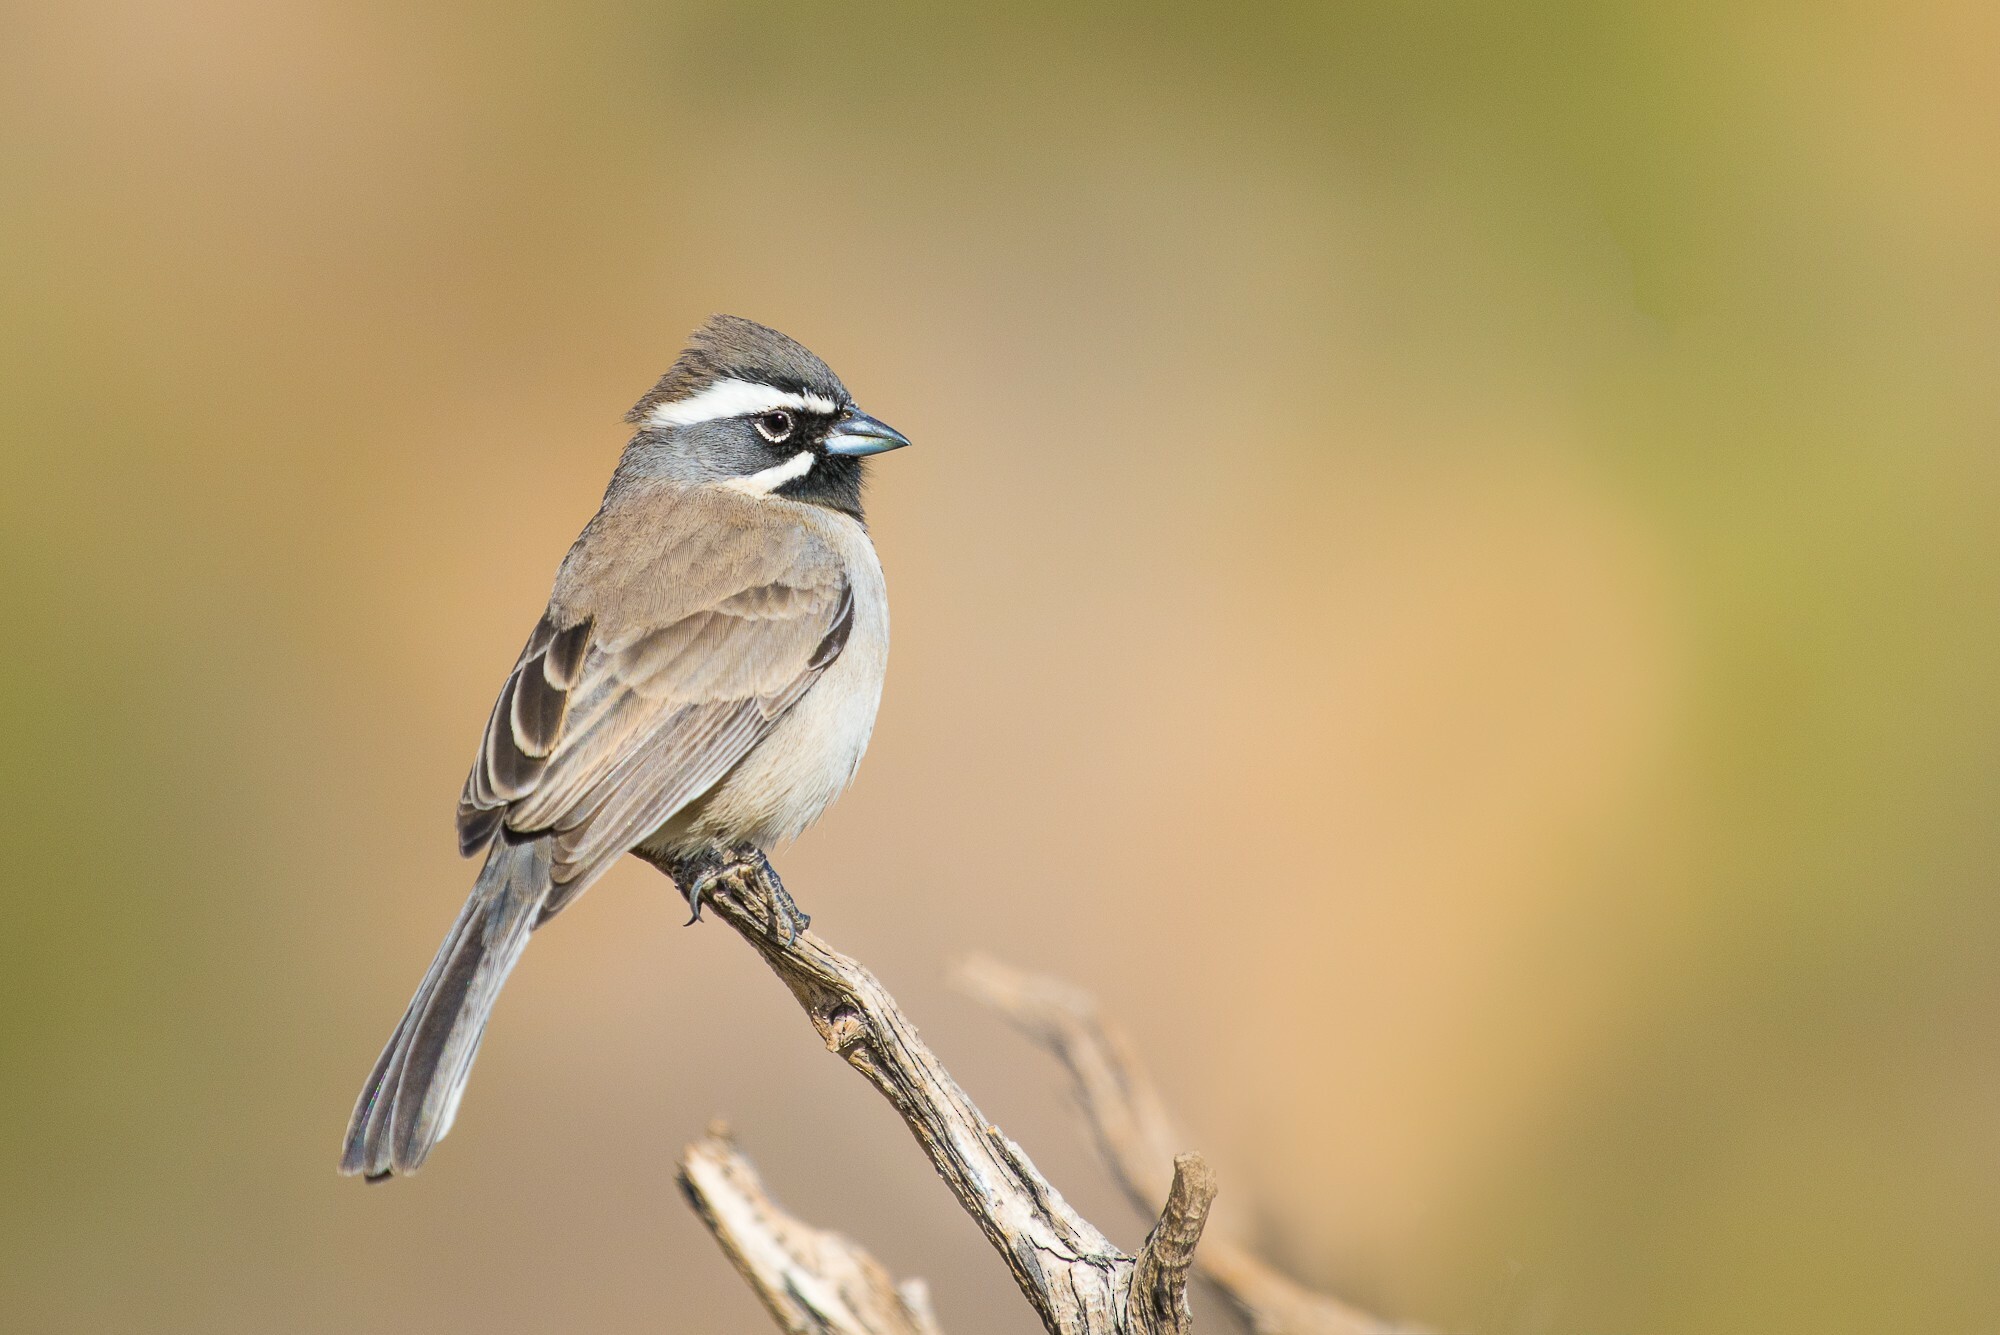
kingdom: Animalia
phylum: Chordata
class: Aves
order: Passeriformes
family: Passerellidae
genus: Amphispiza
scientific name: Amphispiza bilineata
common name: Black-throated sparrow
